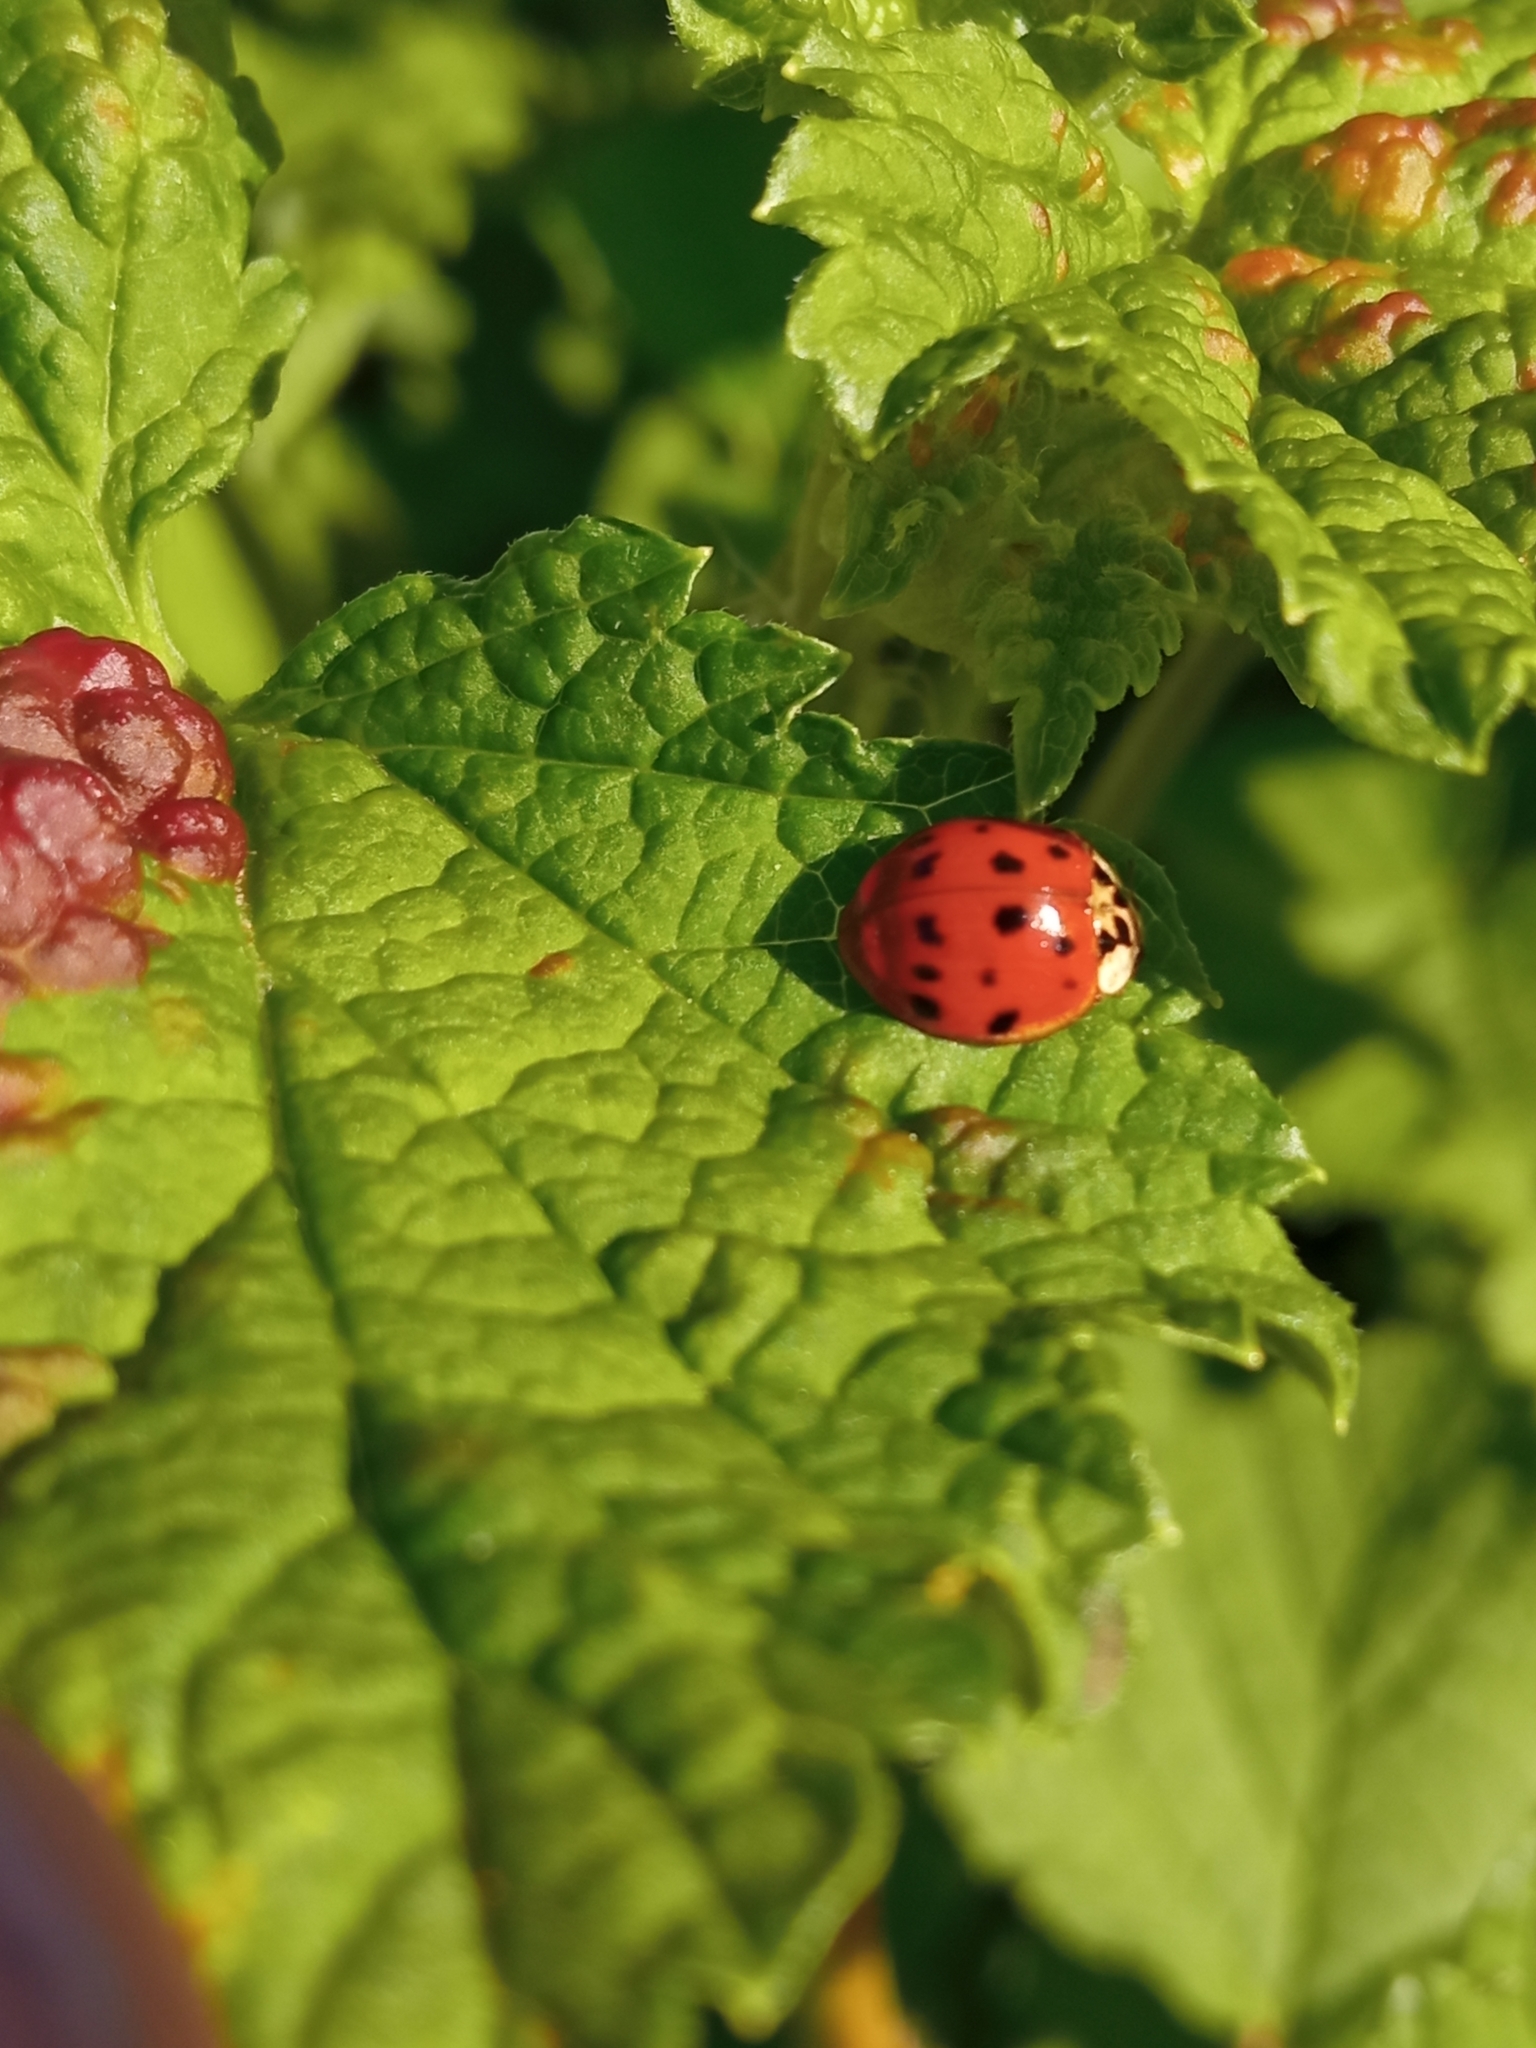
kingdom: Animalia
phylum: Arthropoda
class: Insecta
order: Coleoptera
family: Coccinellidae
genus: Harmonia
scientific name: Harmonia axyridis
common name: Harlequin ladybird
